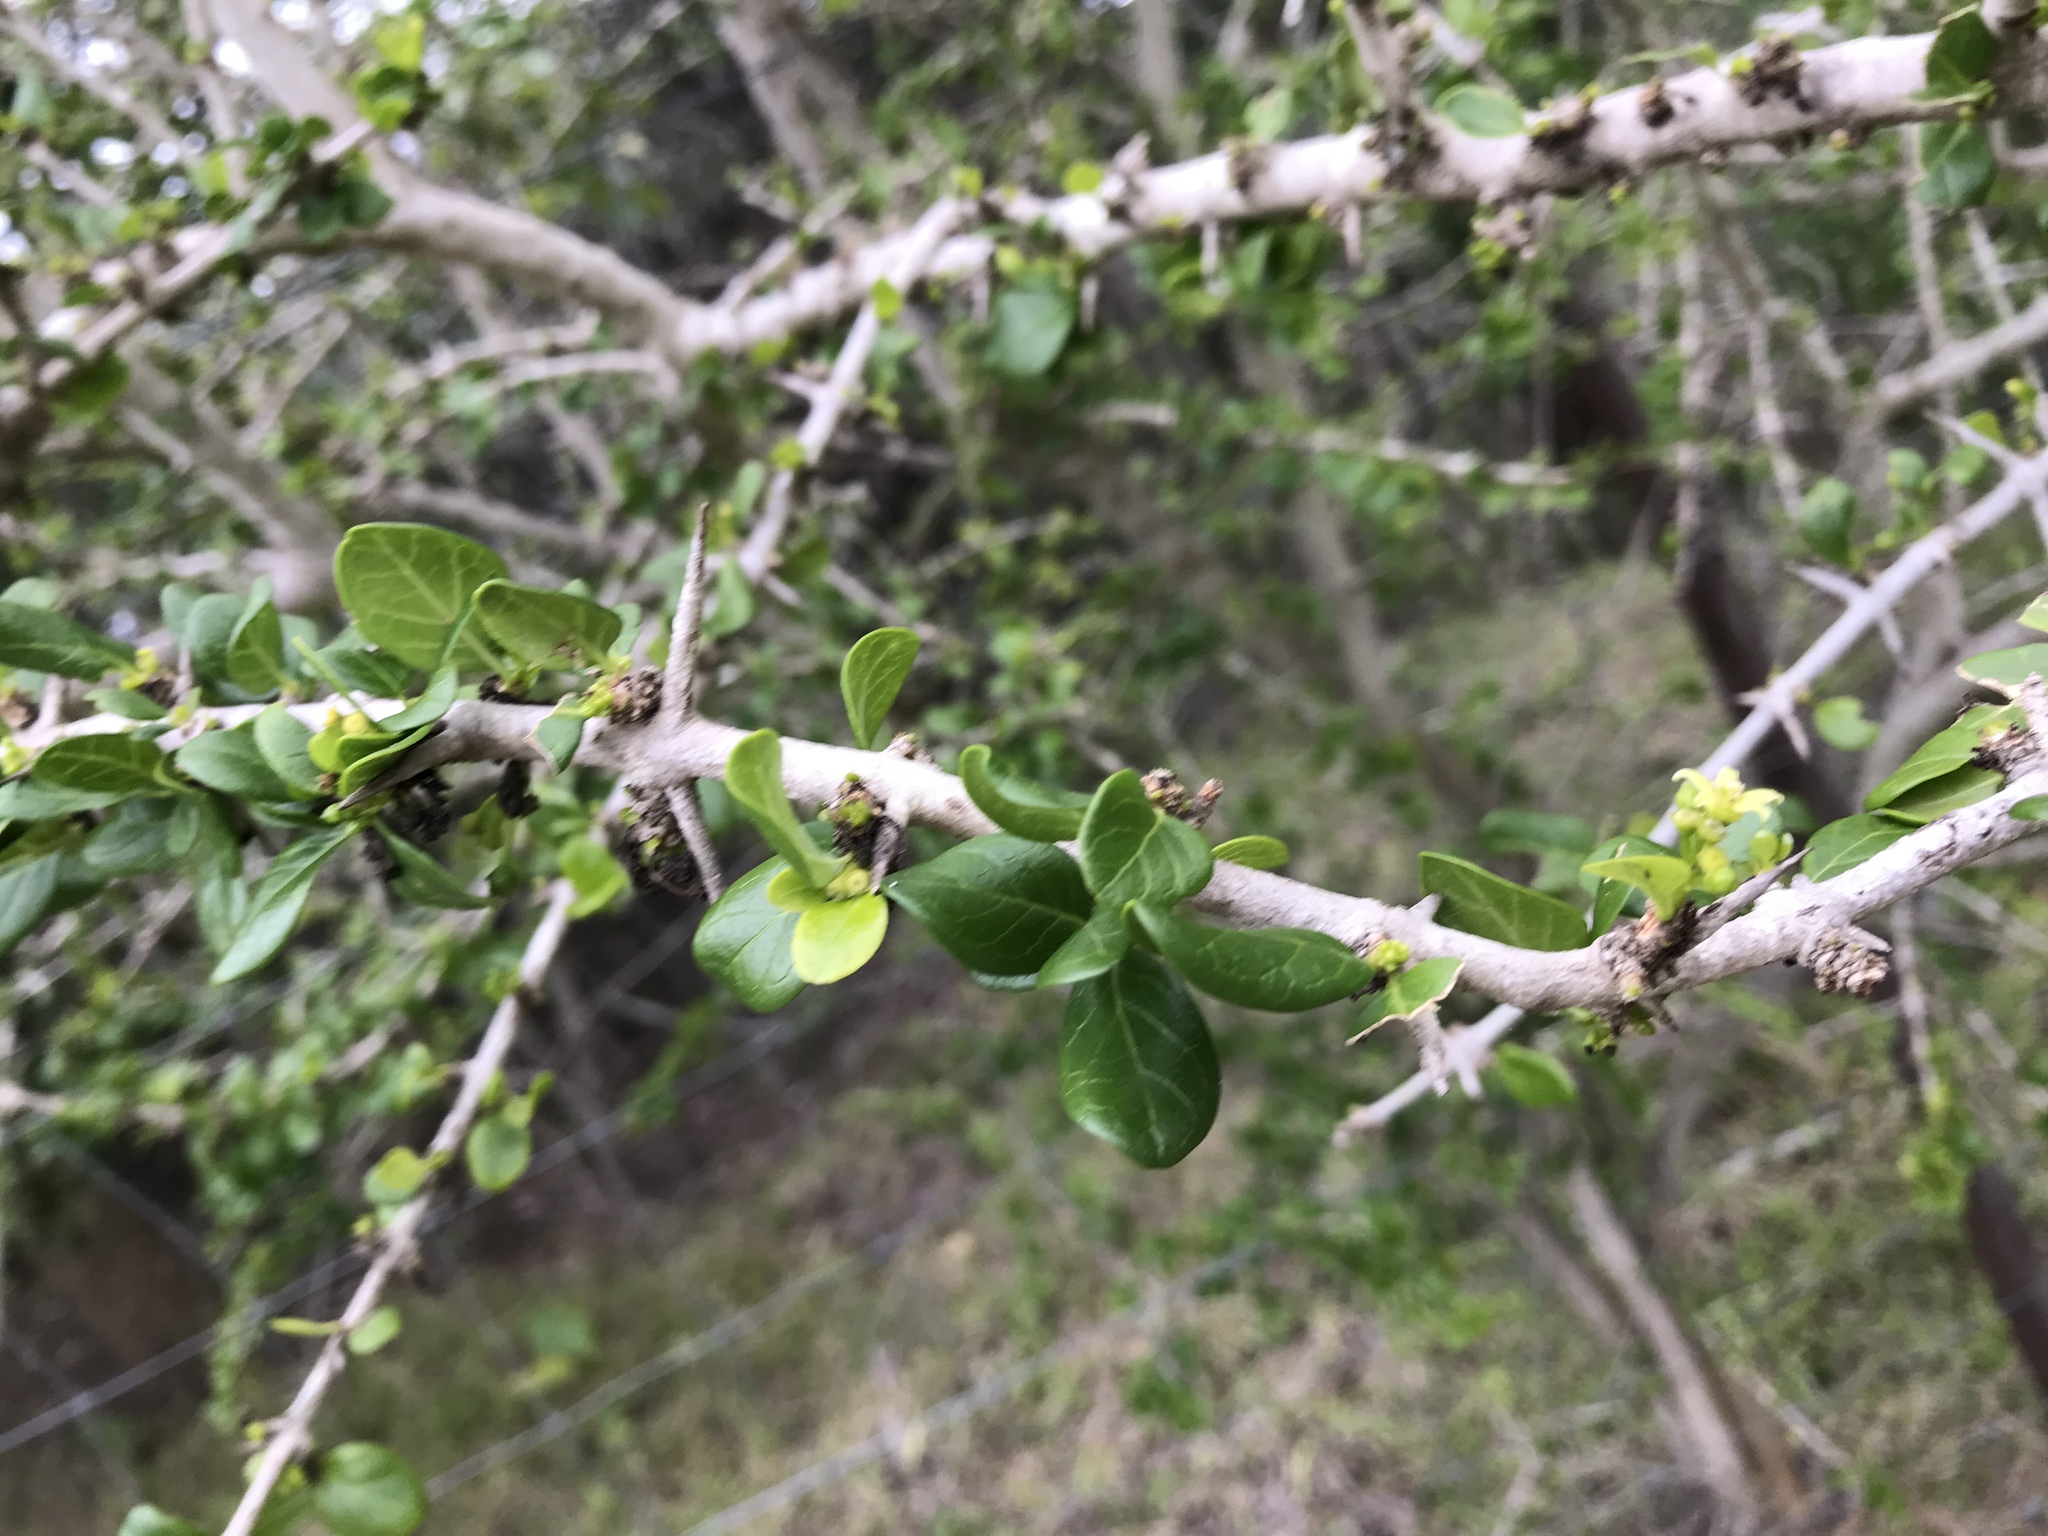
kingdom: Plantae
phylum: Tracheophyta
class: Magnoliopsida
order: Gentianales
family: Rubiaceae
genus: Catunaregam
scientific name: Catunaregam spinosa
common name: Emetic-nut
